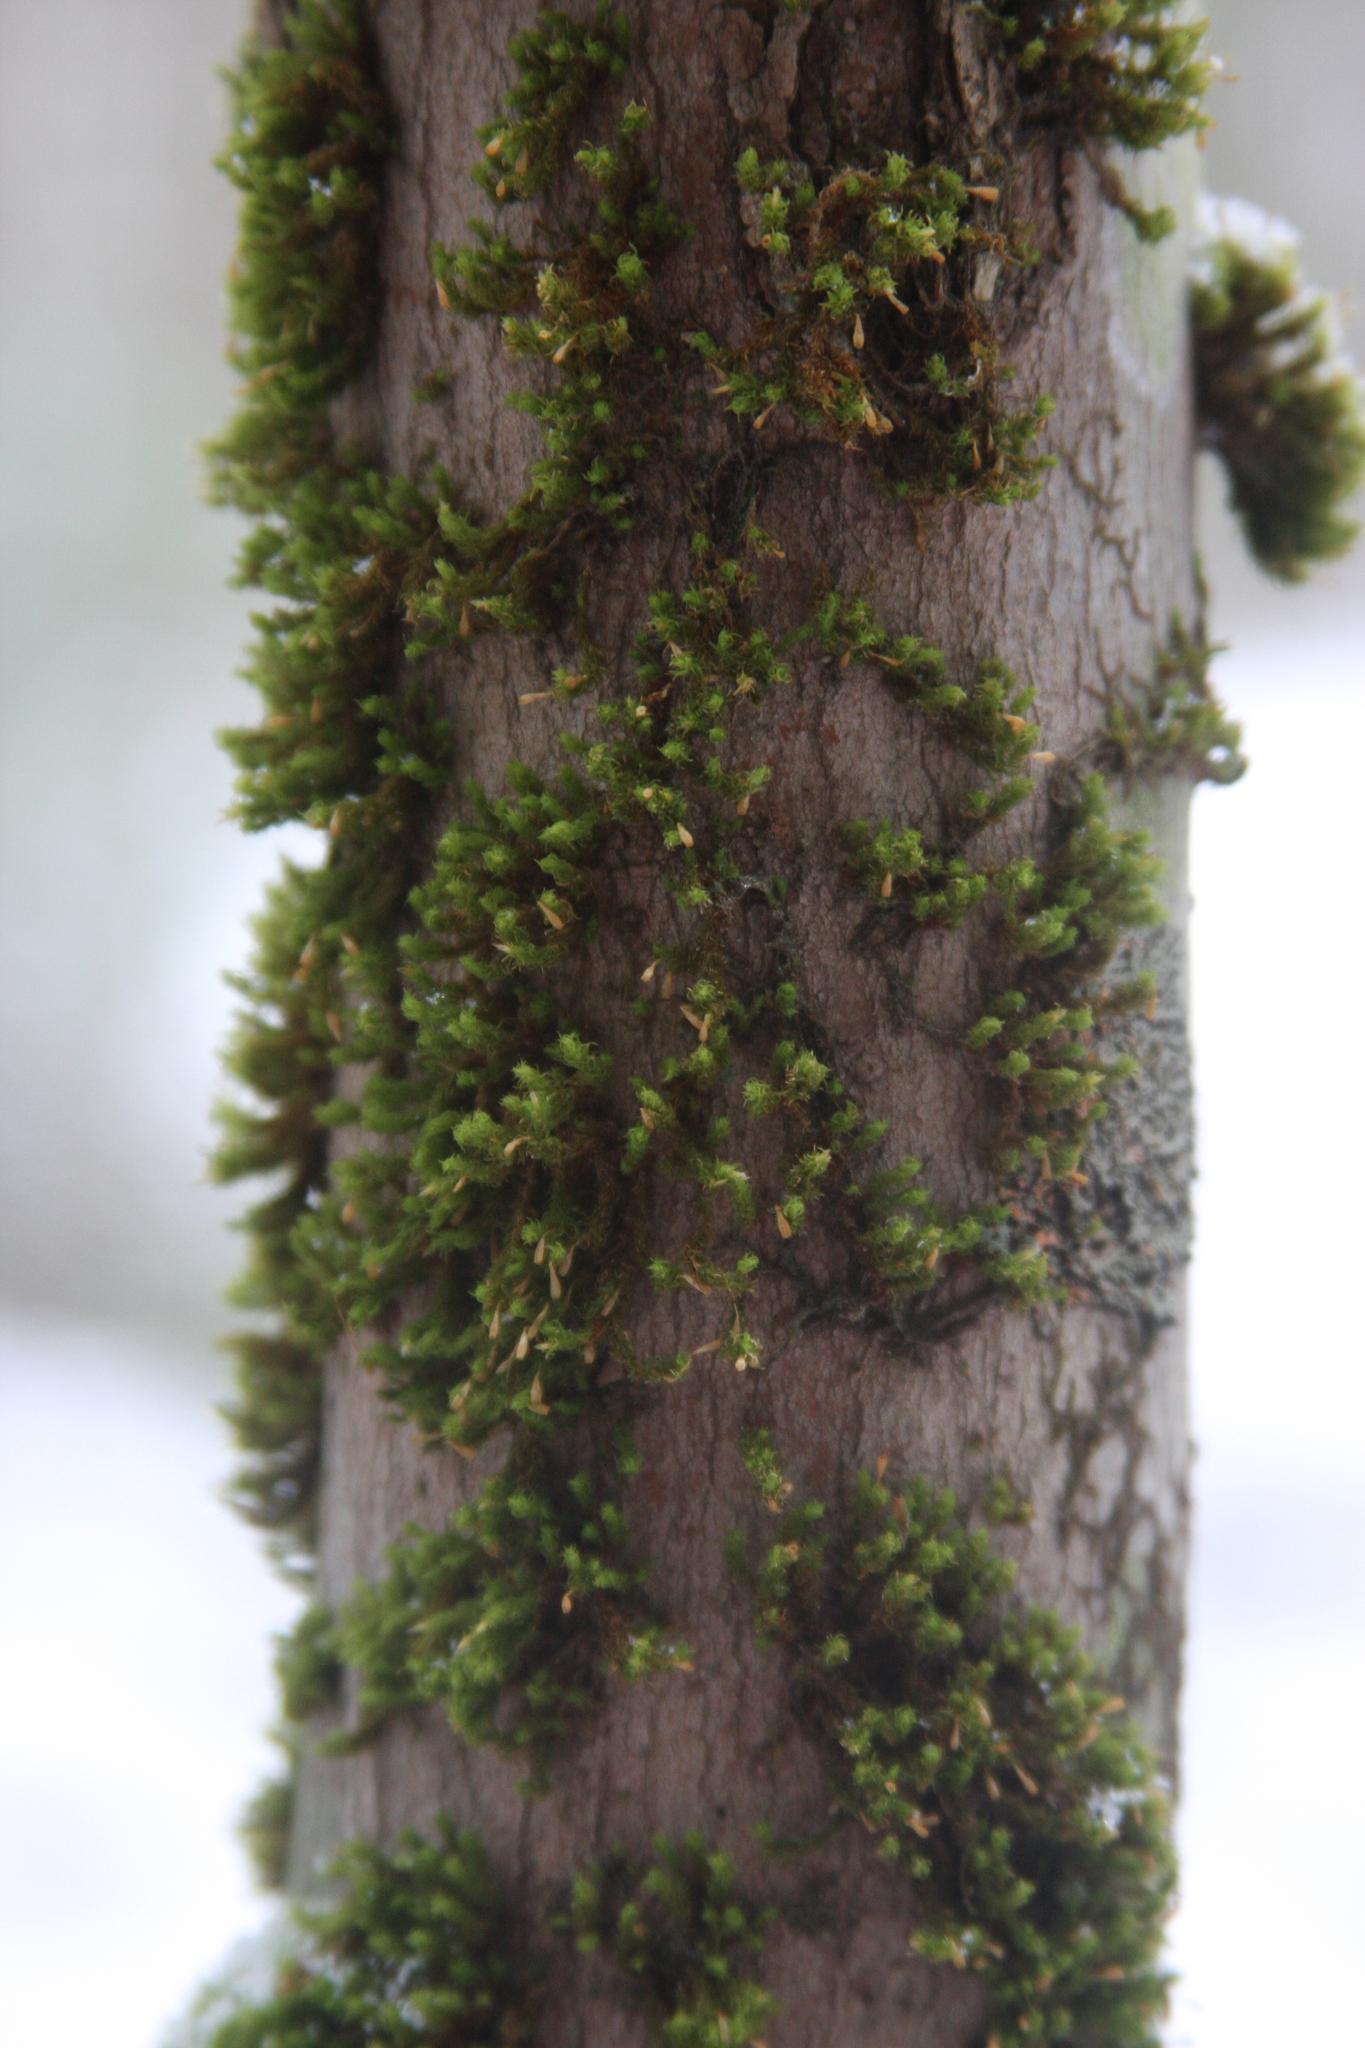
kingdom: Plantae
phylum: Bryophyta
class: Bryopsida
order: Orthotrichales
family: Orthotrichaceae
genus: Ulota
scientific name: Ulota crispa
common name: Crisped pincushion moss
